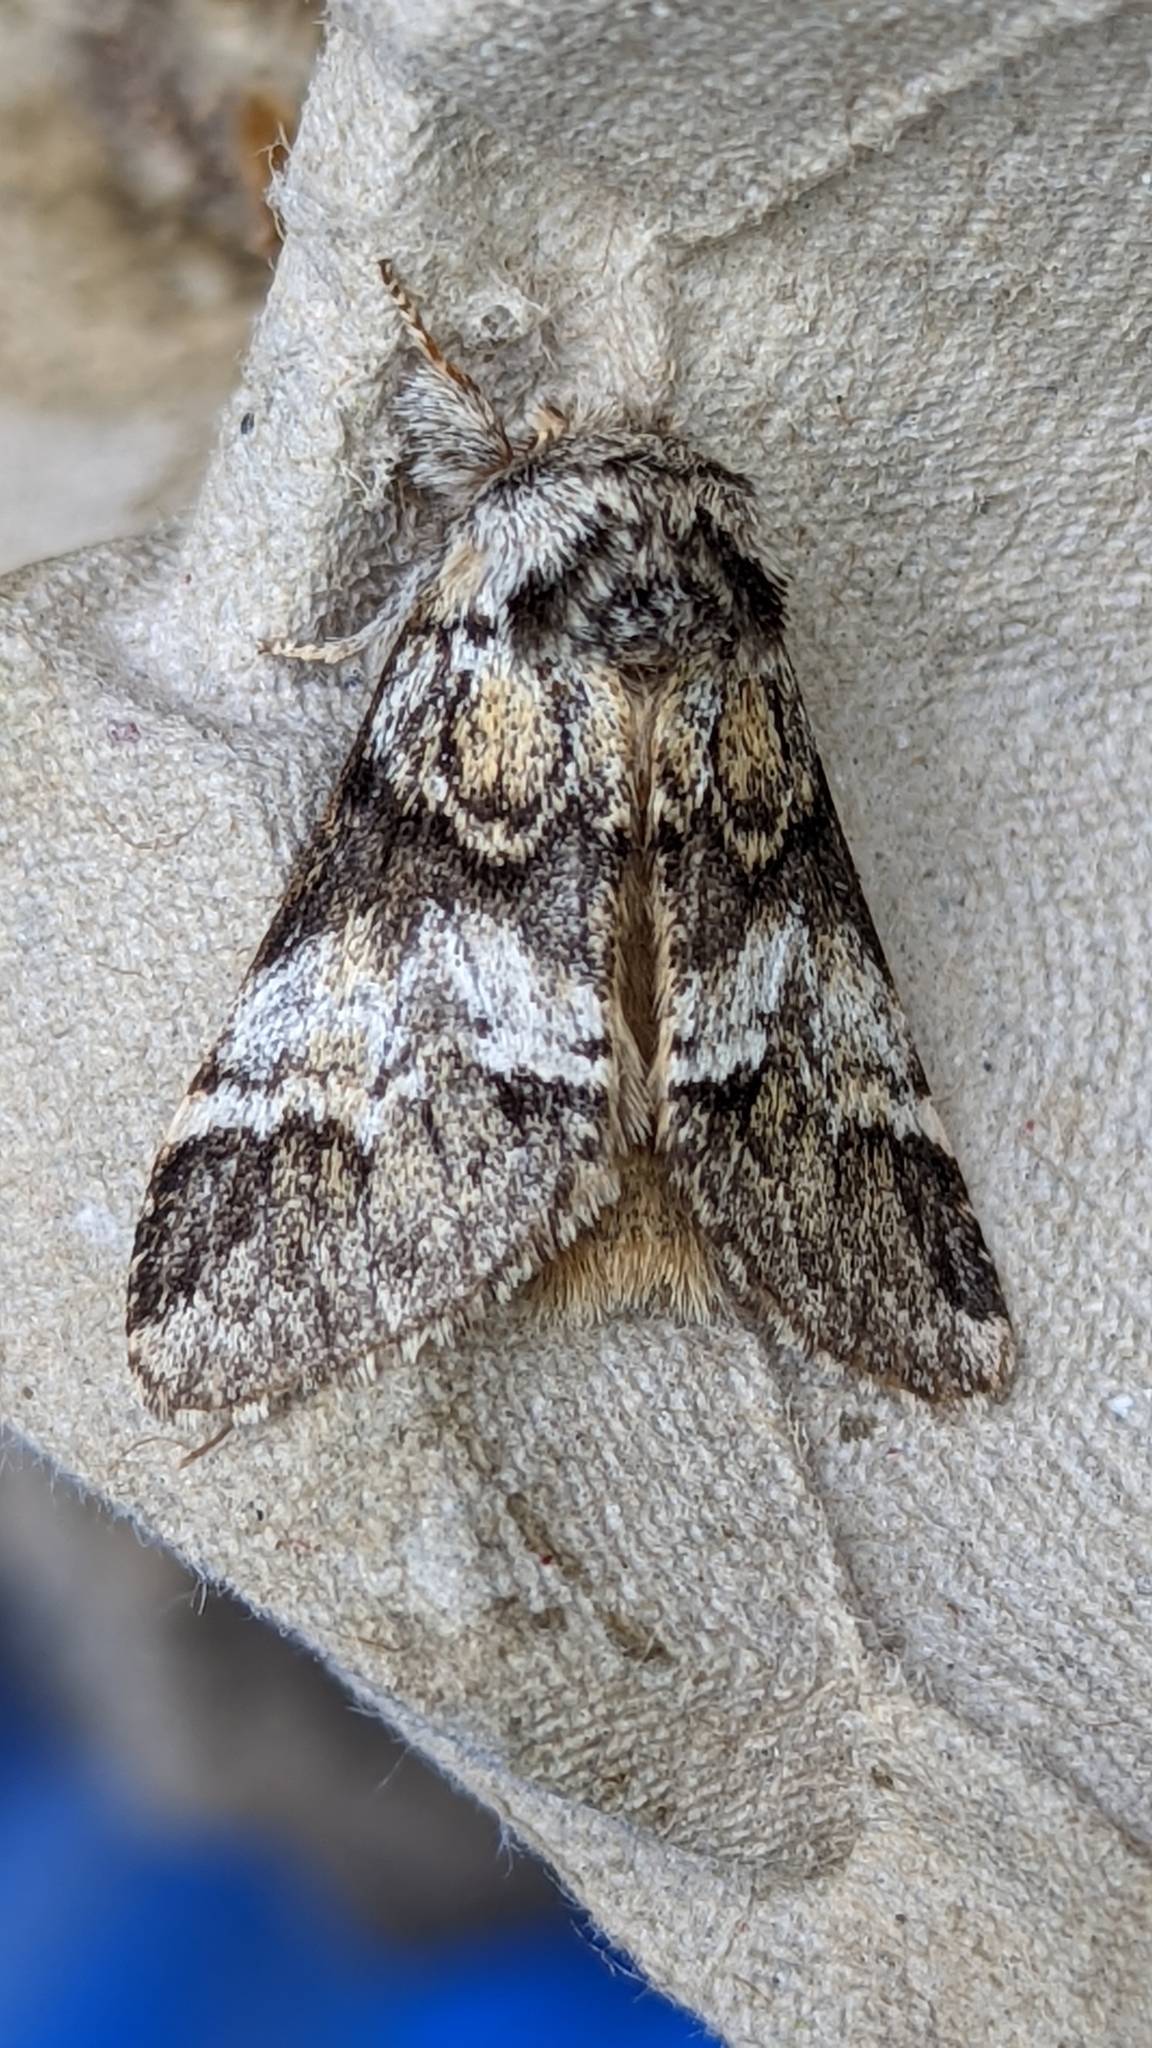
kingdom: Animalia
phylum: Arthropoda
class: Insecta
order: Lepidoptera
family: Notodontidae
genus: Drymonia
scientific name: Drymonia dodonaea
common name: Marbled brown
